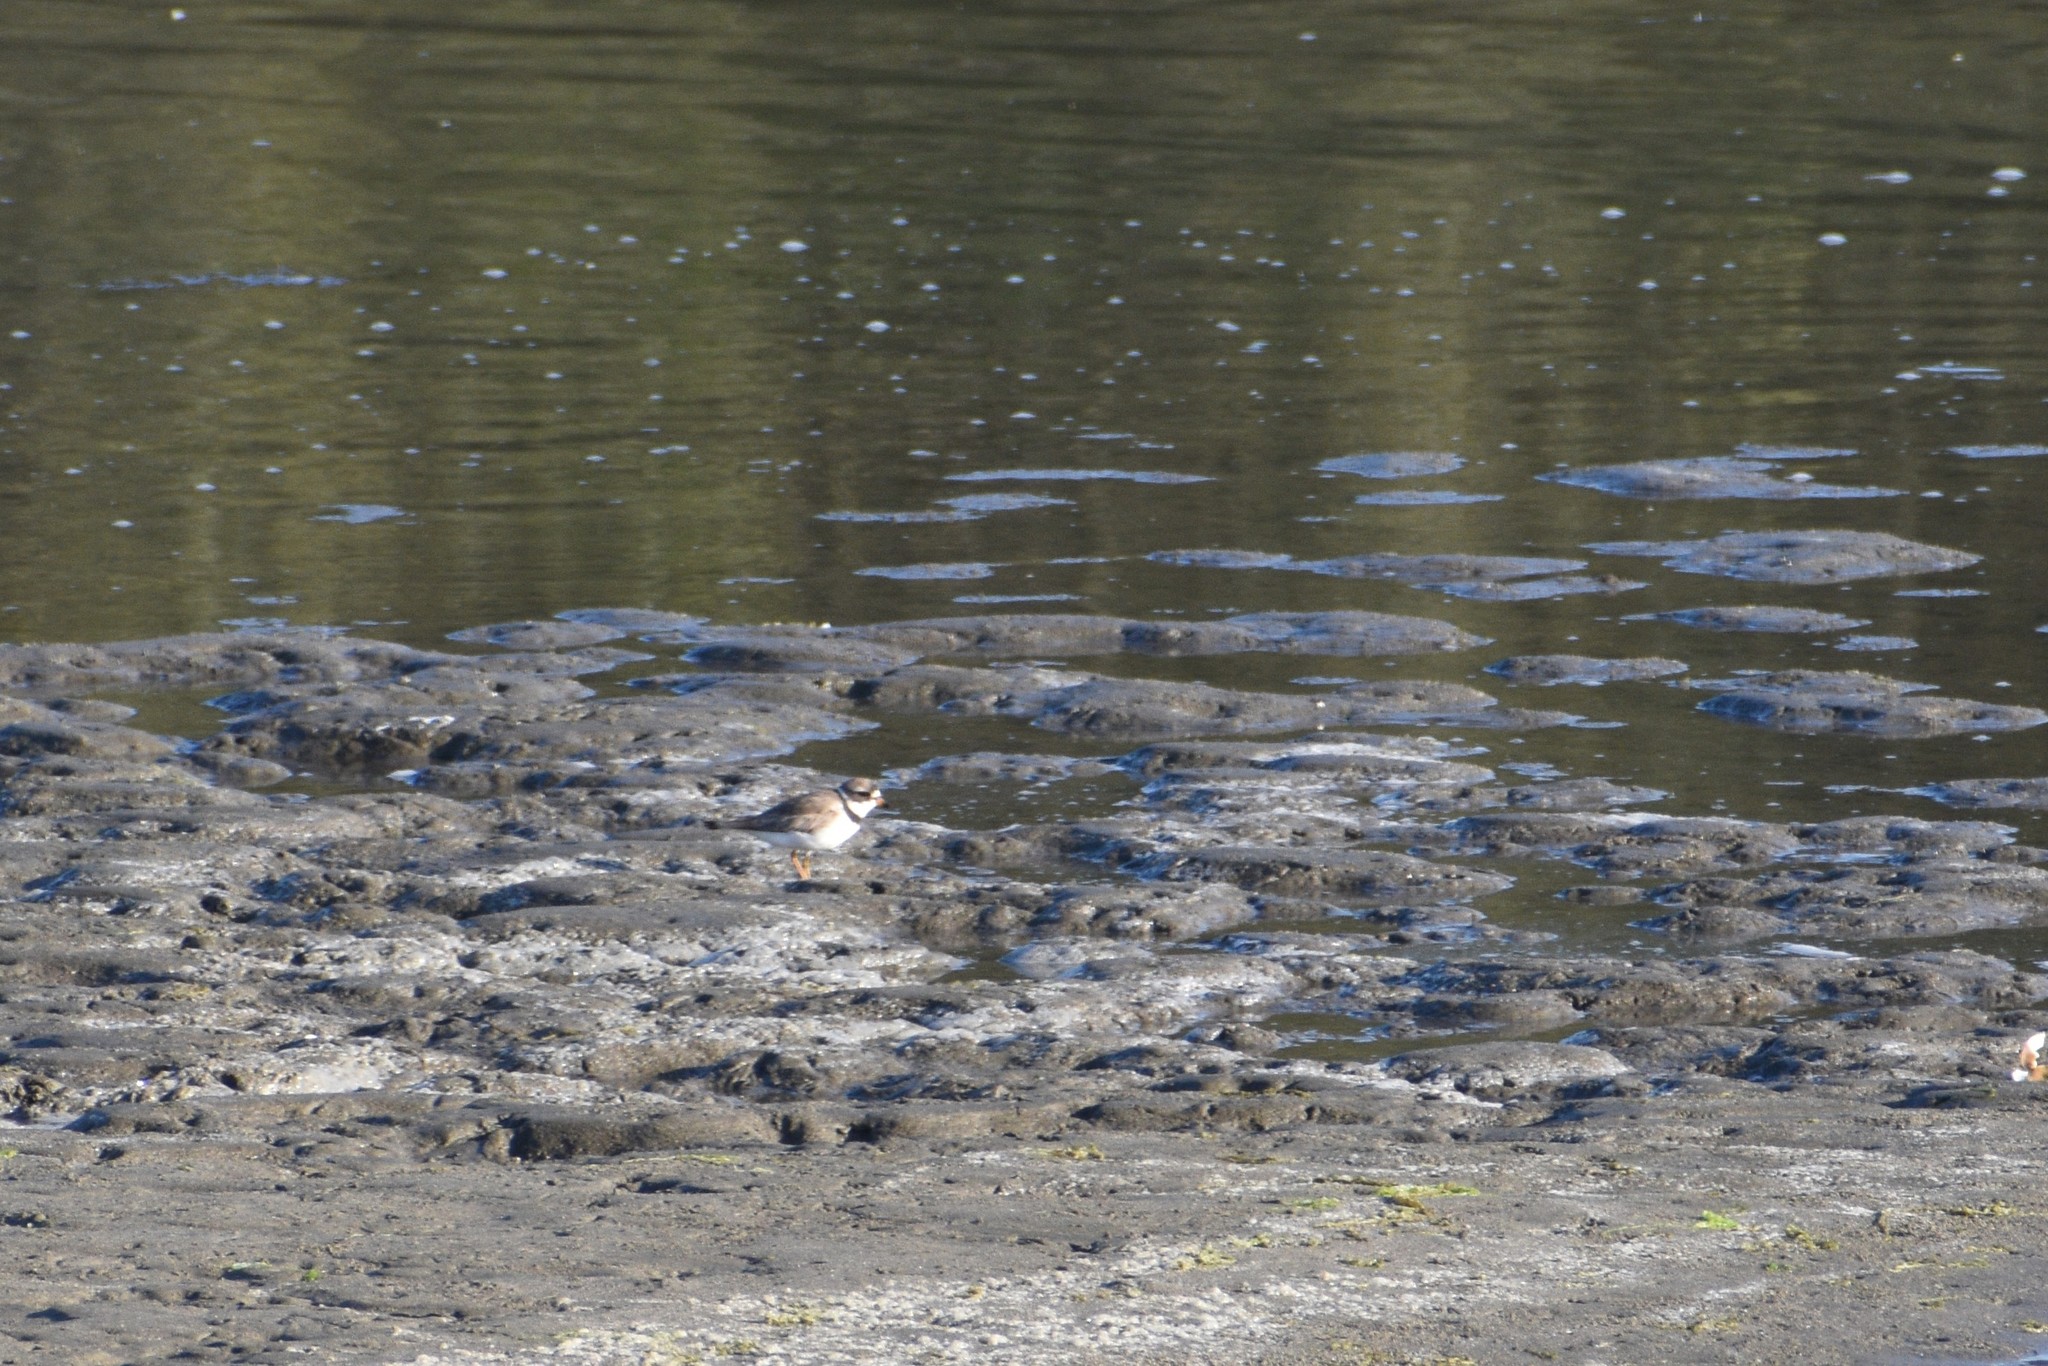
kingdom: Animalia
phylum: Chordata
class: Aves
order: Charadriiformes
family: Charadriidae
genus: Charadrius
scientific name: Charadrius semipalmatus
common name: Semipalmated plover
